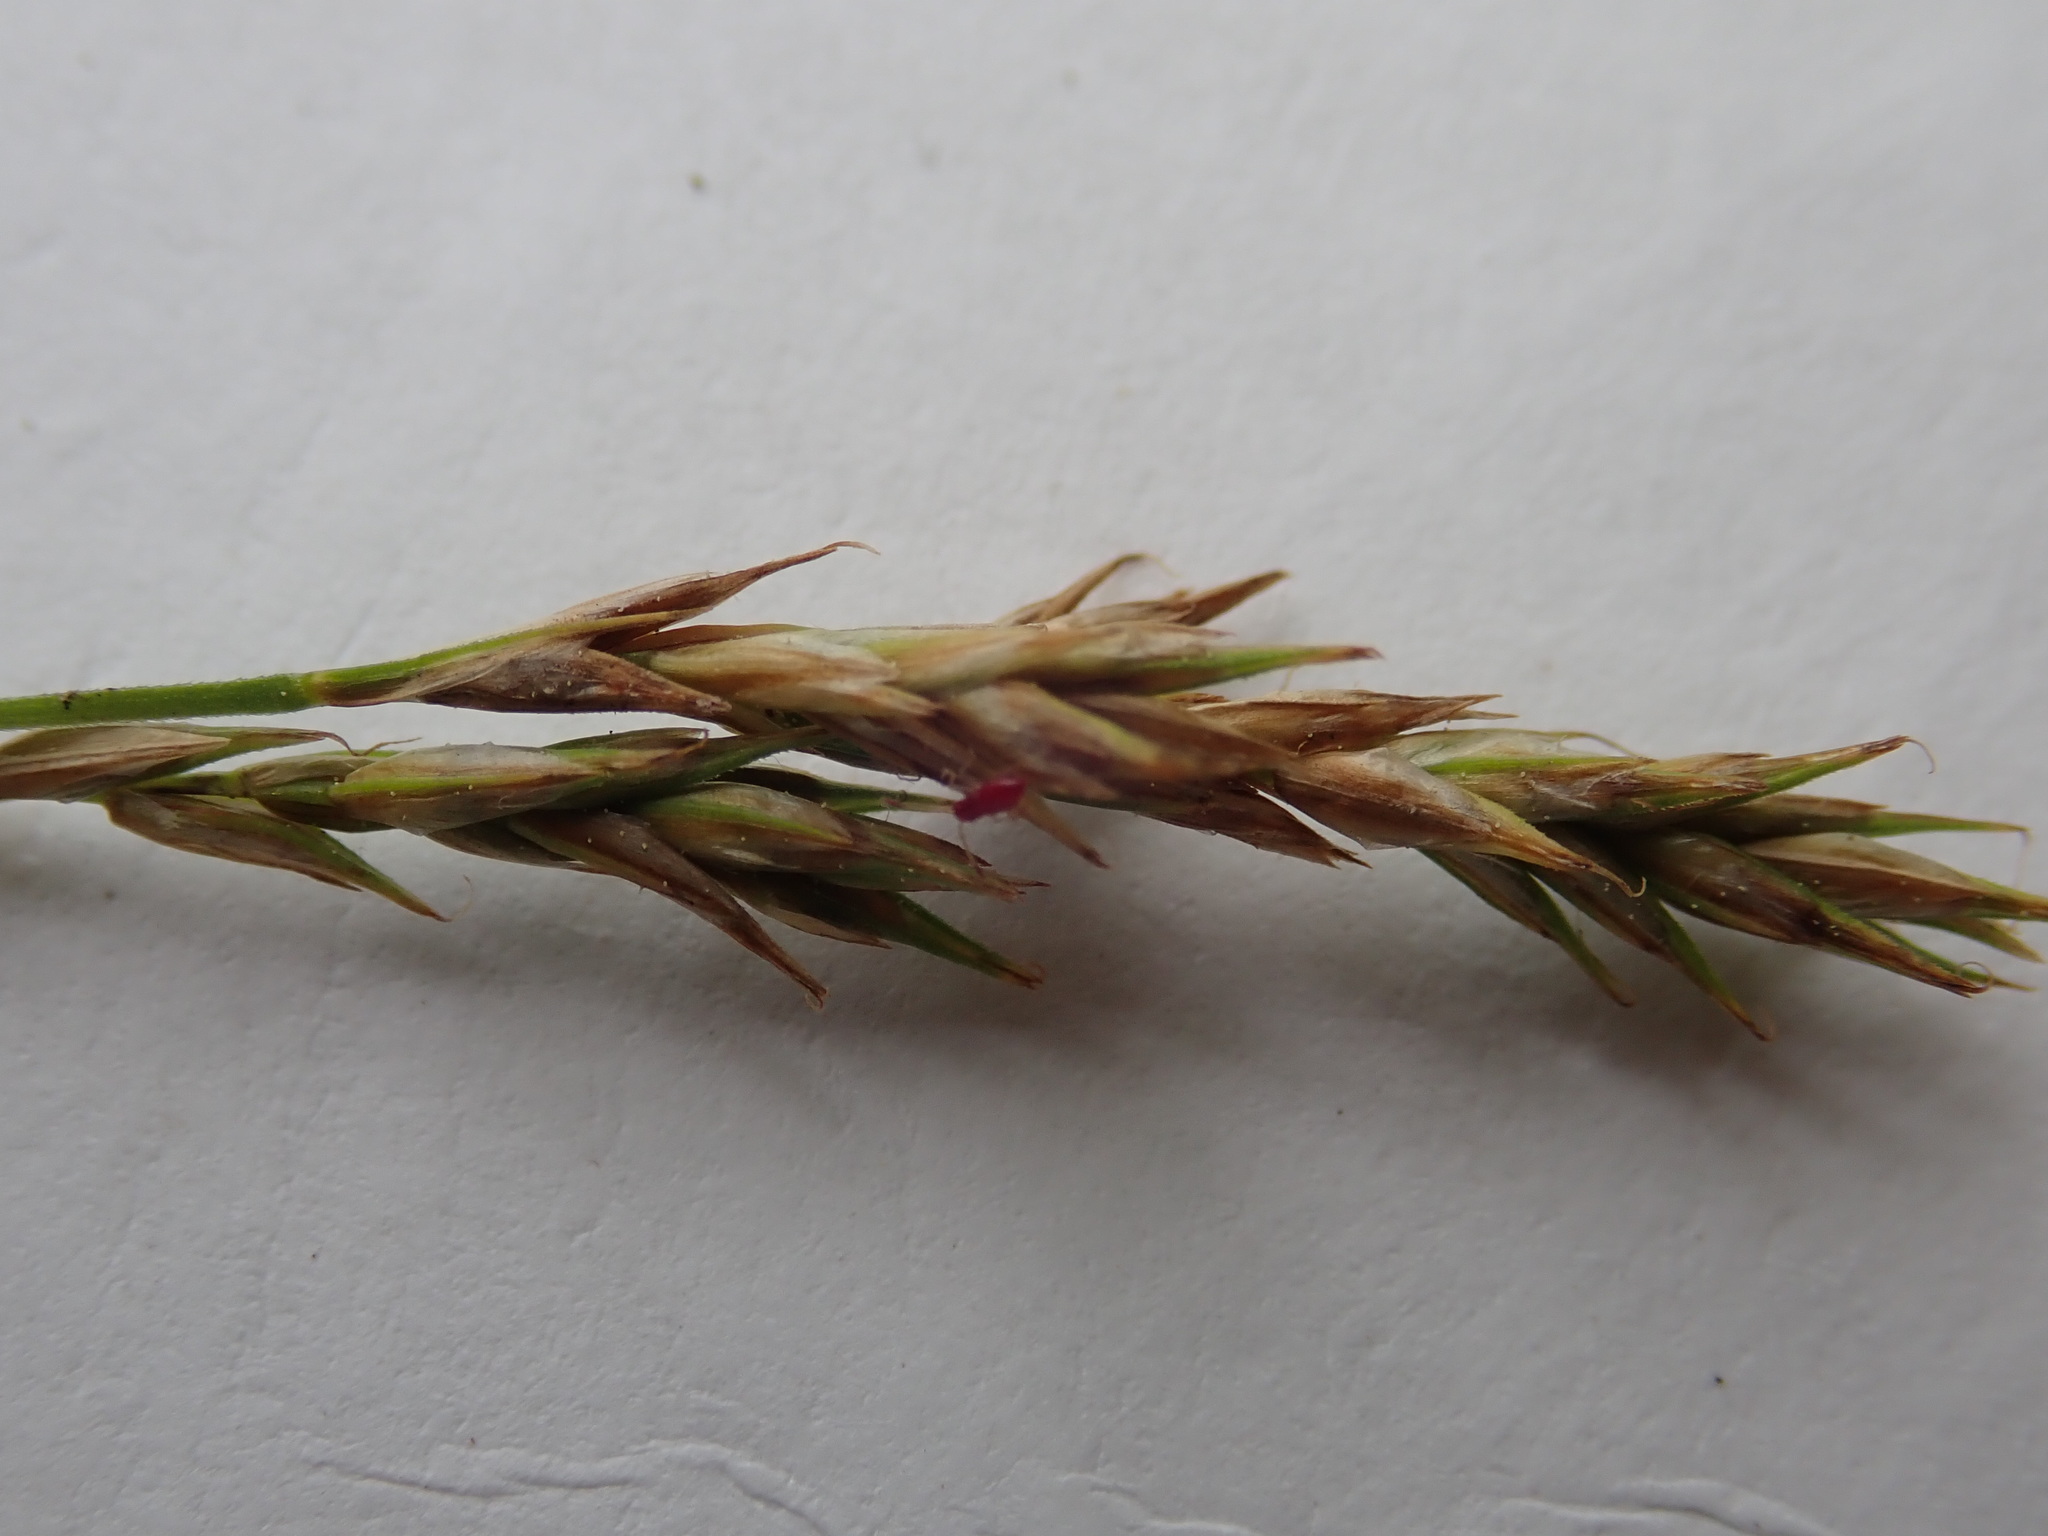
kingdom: Plantae
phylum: Tracheophyta
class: Liliopsida
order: Poales
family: Cyperaceae
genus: Carex
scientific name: Carex bromoides
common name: Brome hummock sedge
